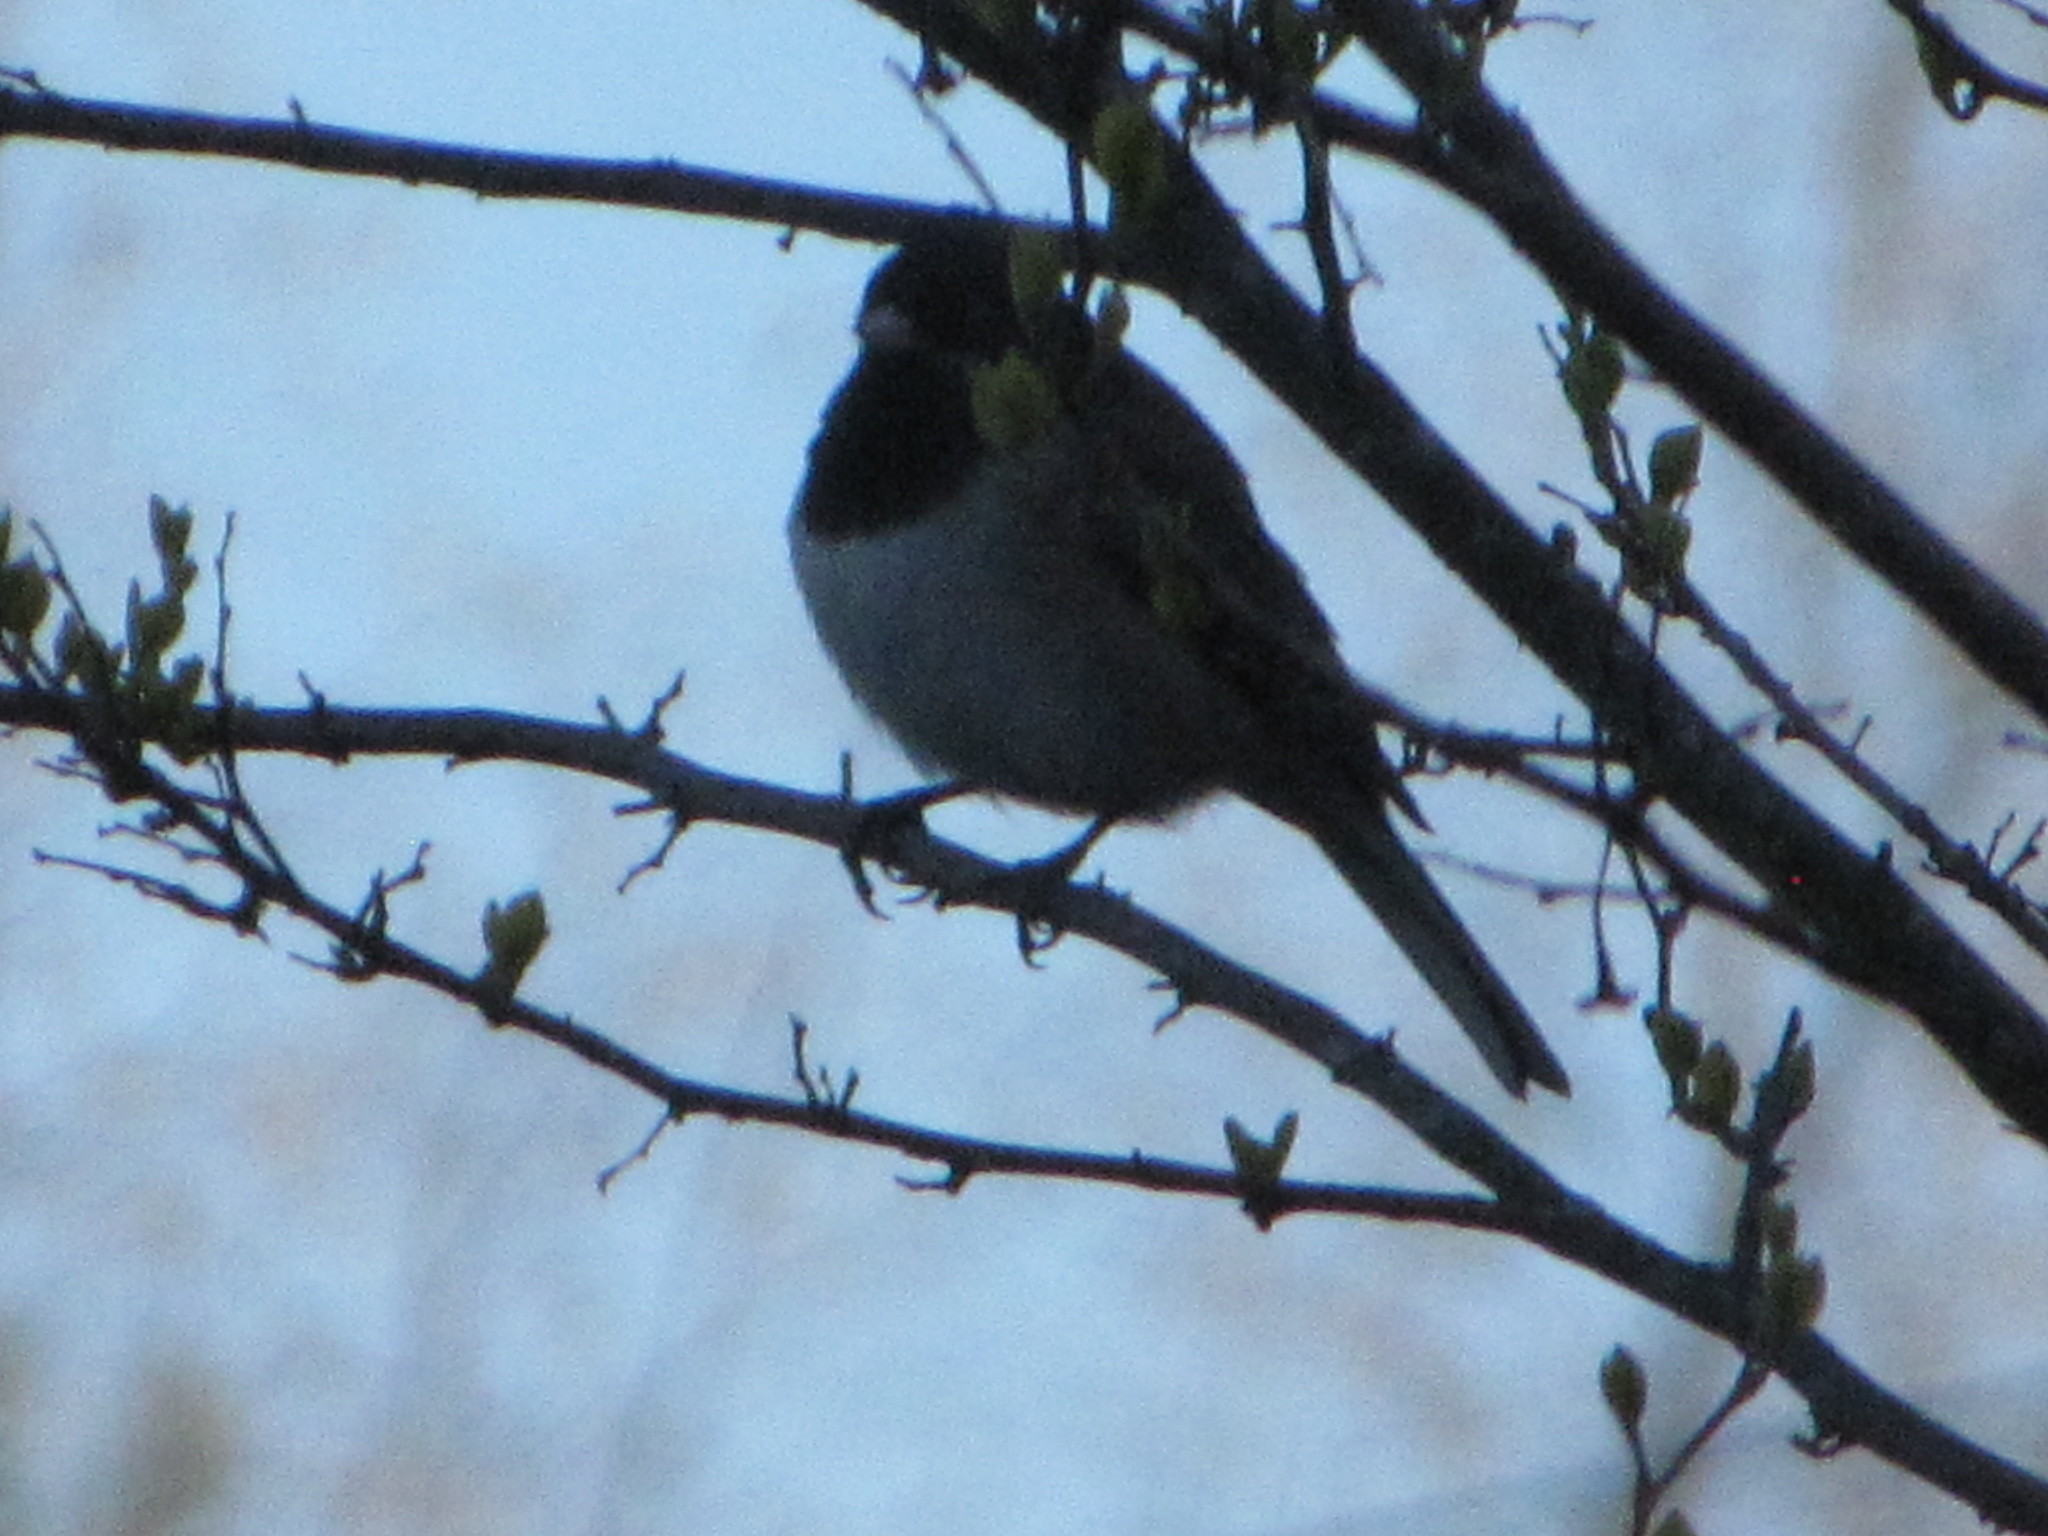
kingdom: Animalia
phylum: Chordata
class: Aves
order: Passeriformes
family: Passerellidae
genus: Junco
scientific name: Junco hyemalis
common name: Dark-eyed junco
